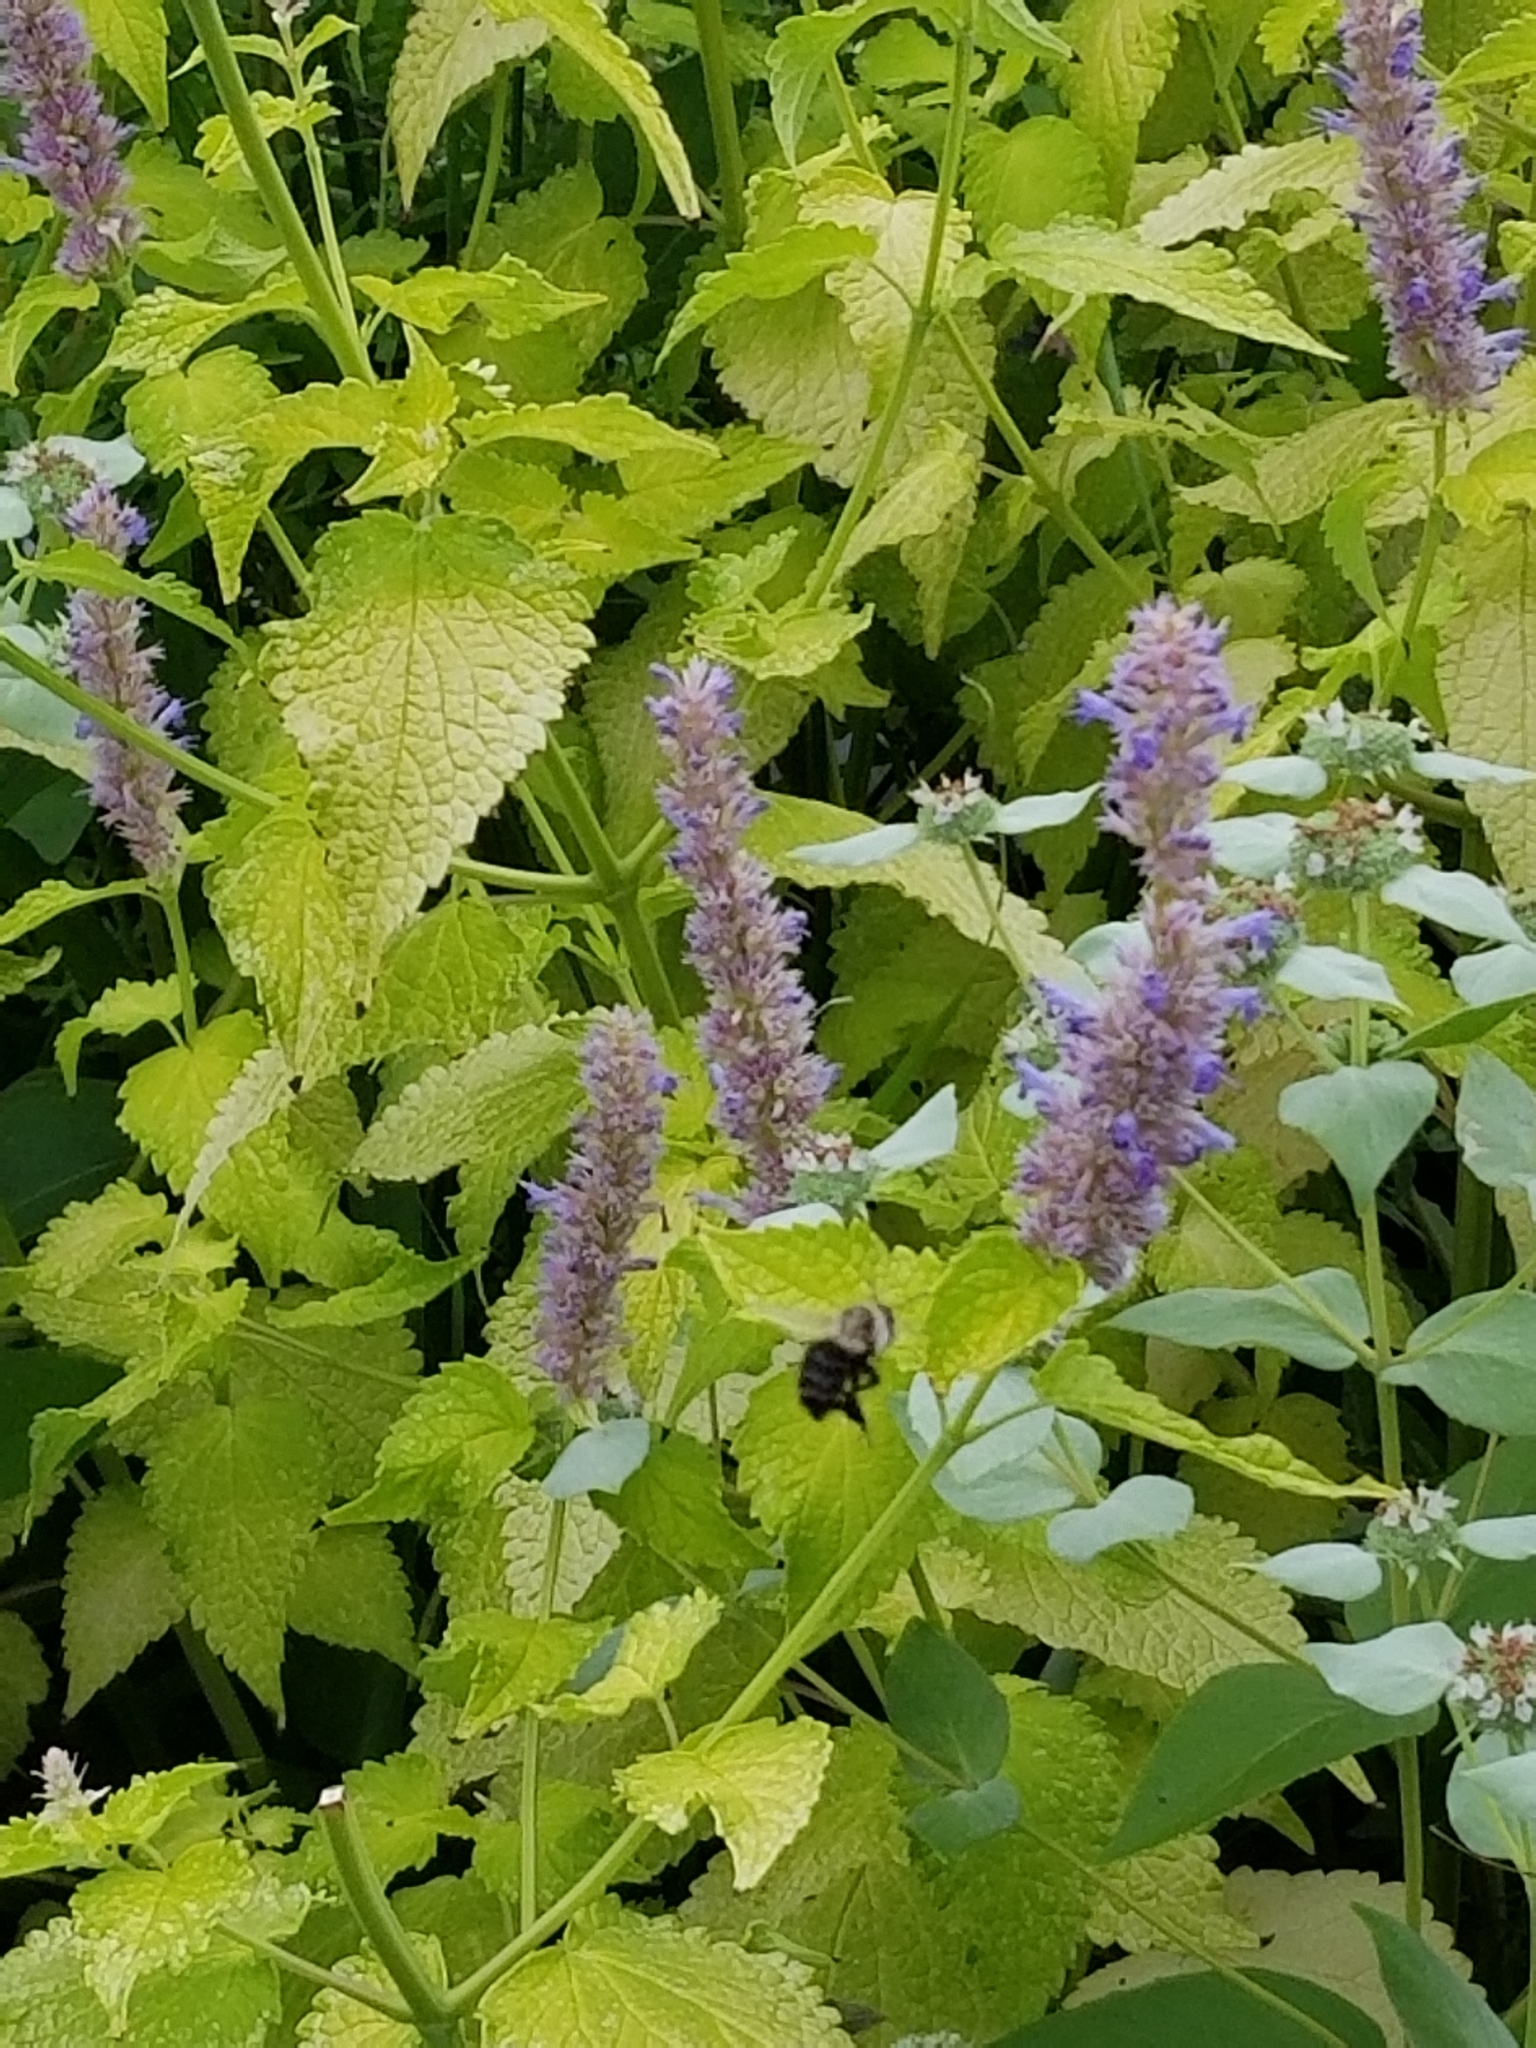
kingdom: Plantae
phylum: Tracheophyta
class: Magnoliopsida
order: Lamiales
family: Lamiaceae
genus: Agastache
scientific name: Agastache foeniculum
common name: Anise hyssop
